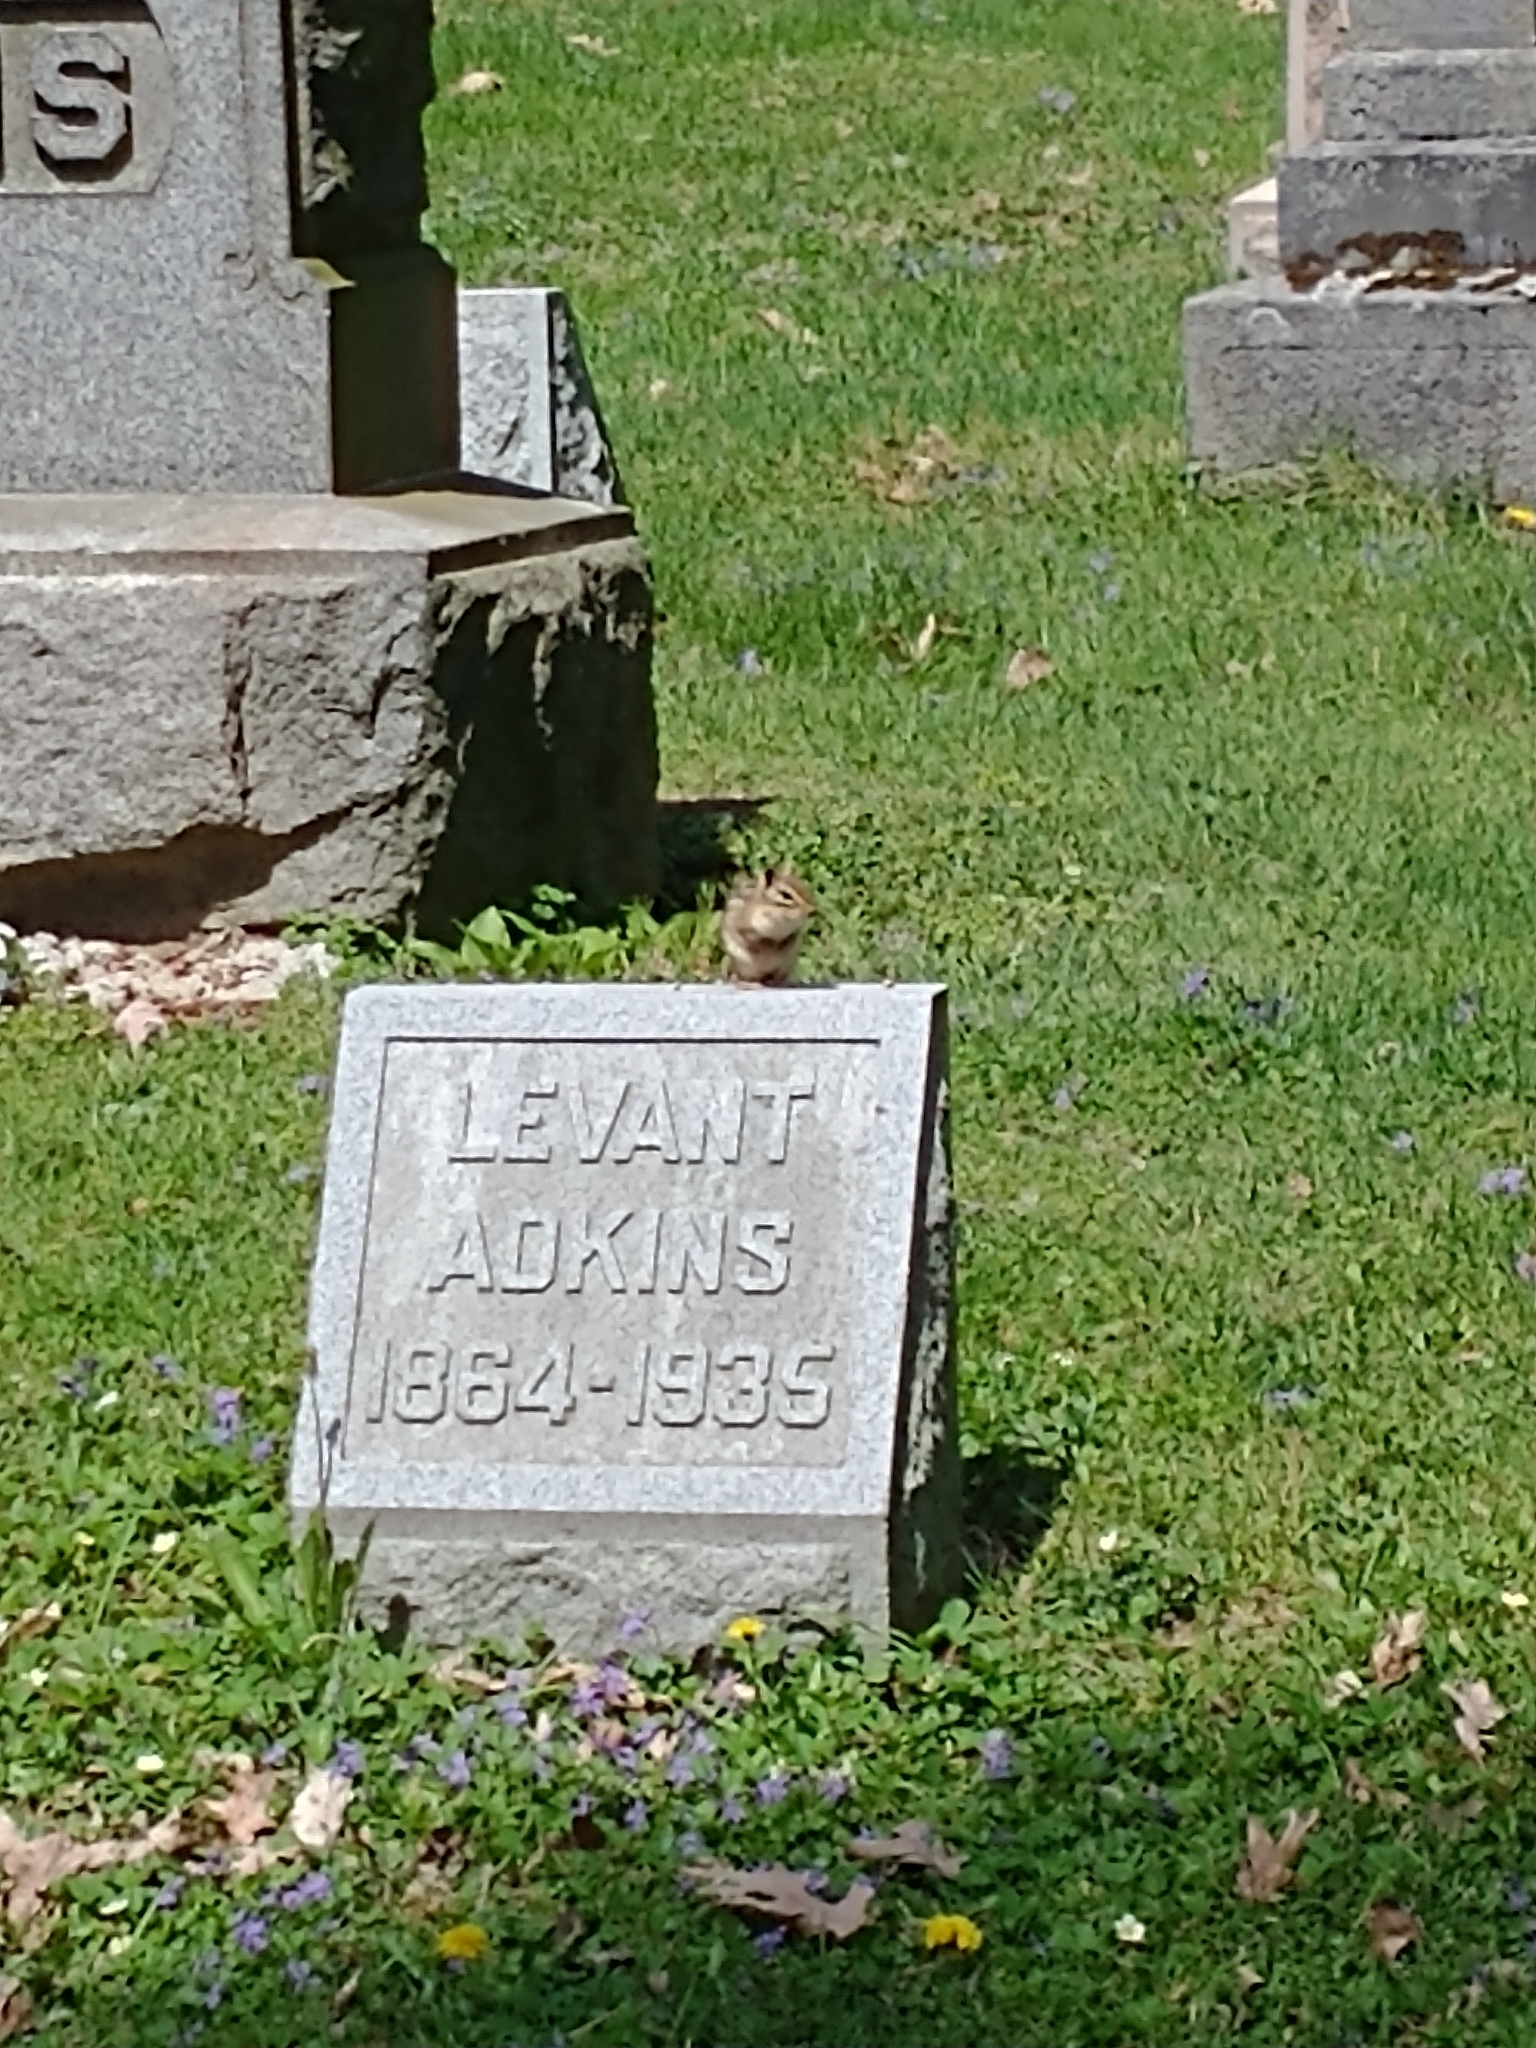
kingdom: Animalia
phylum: Chordata
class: Mammalia
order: Rodentia
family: Sciuridae
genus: Tamias
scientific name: Tamias striatus
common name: Eastern chipmunk
